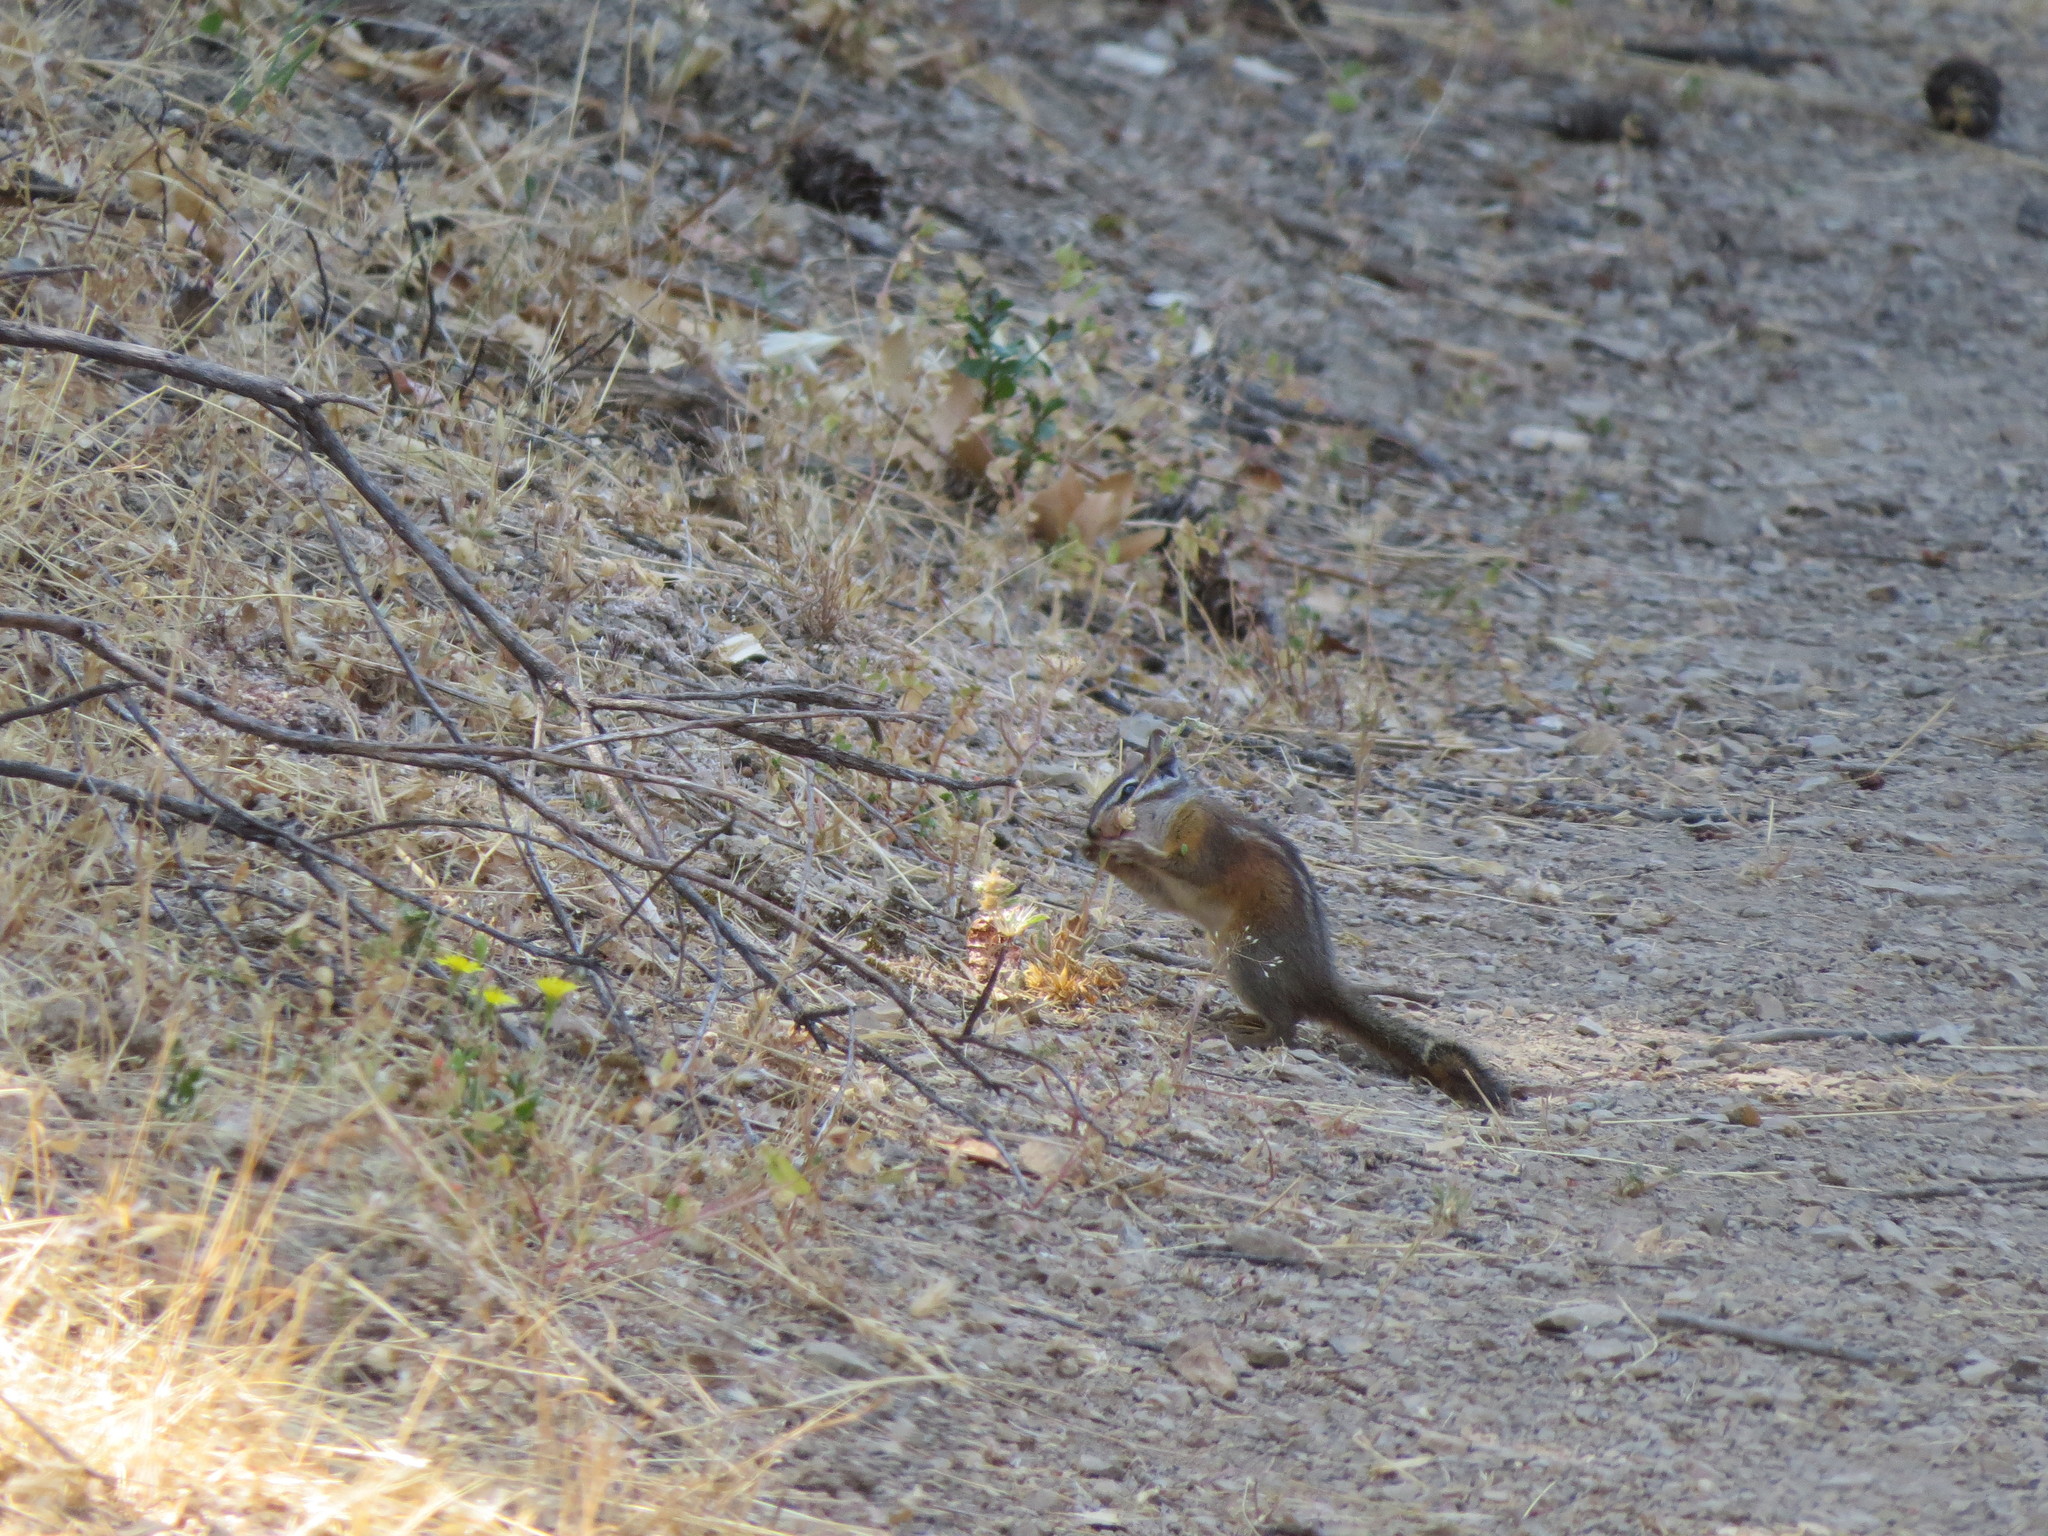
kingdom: Animalia
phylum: Chordata
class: Mammalia
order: Rodentia
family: Sciuridae
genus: Tamias
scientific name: Tamias merriami
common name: Merriam's chipmunk
